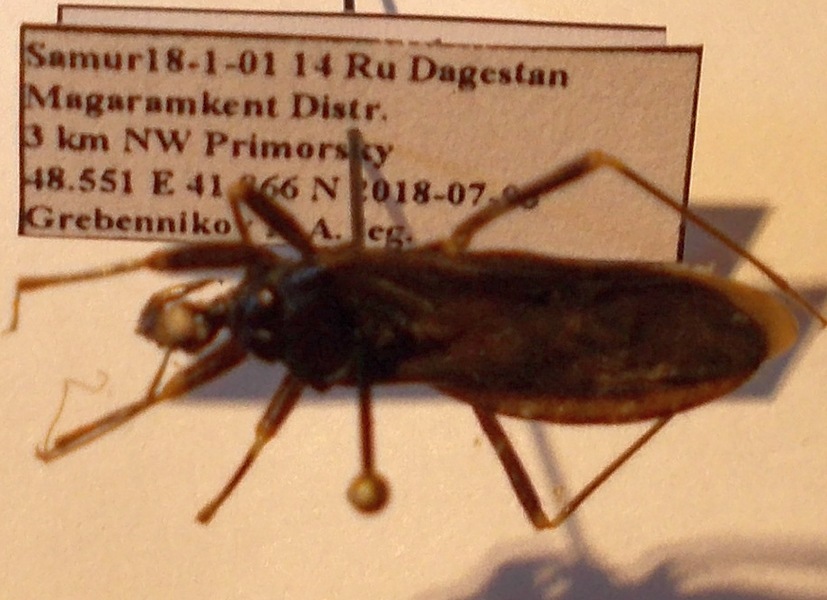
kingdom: Animalia
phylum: Arthropoda
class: Insecta
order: Hemiptera
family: Reduviidae
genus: Reduvius
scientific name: Reduvius personatus
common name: Masked hunter
